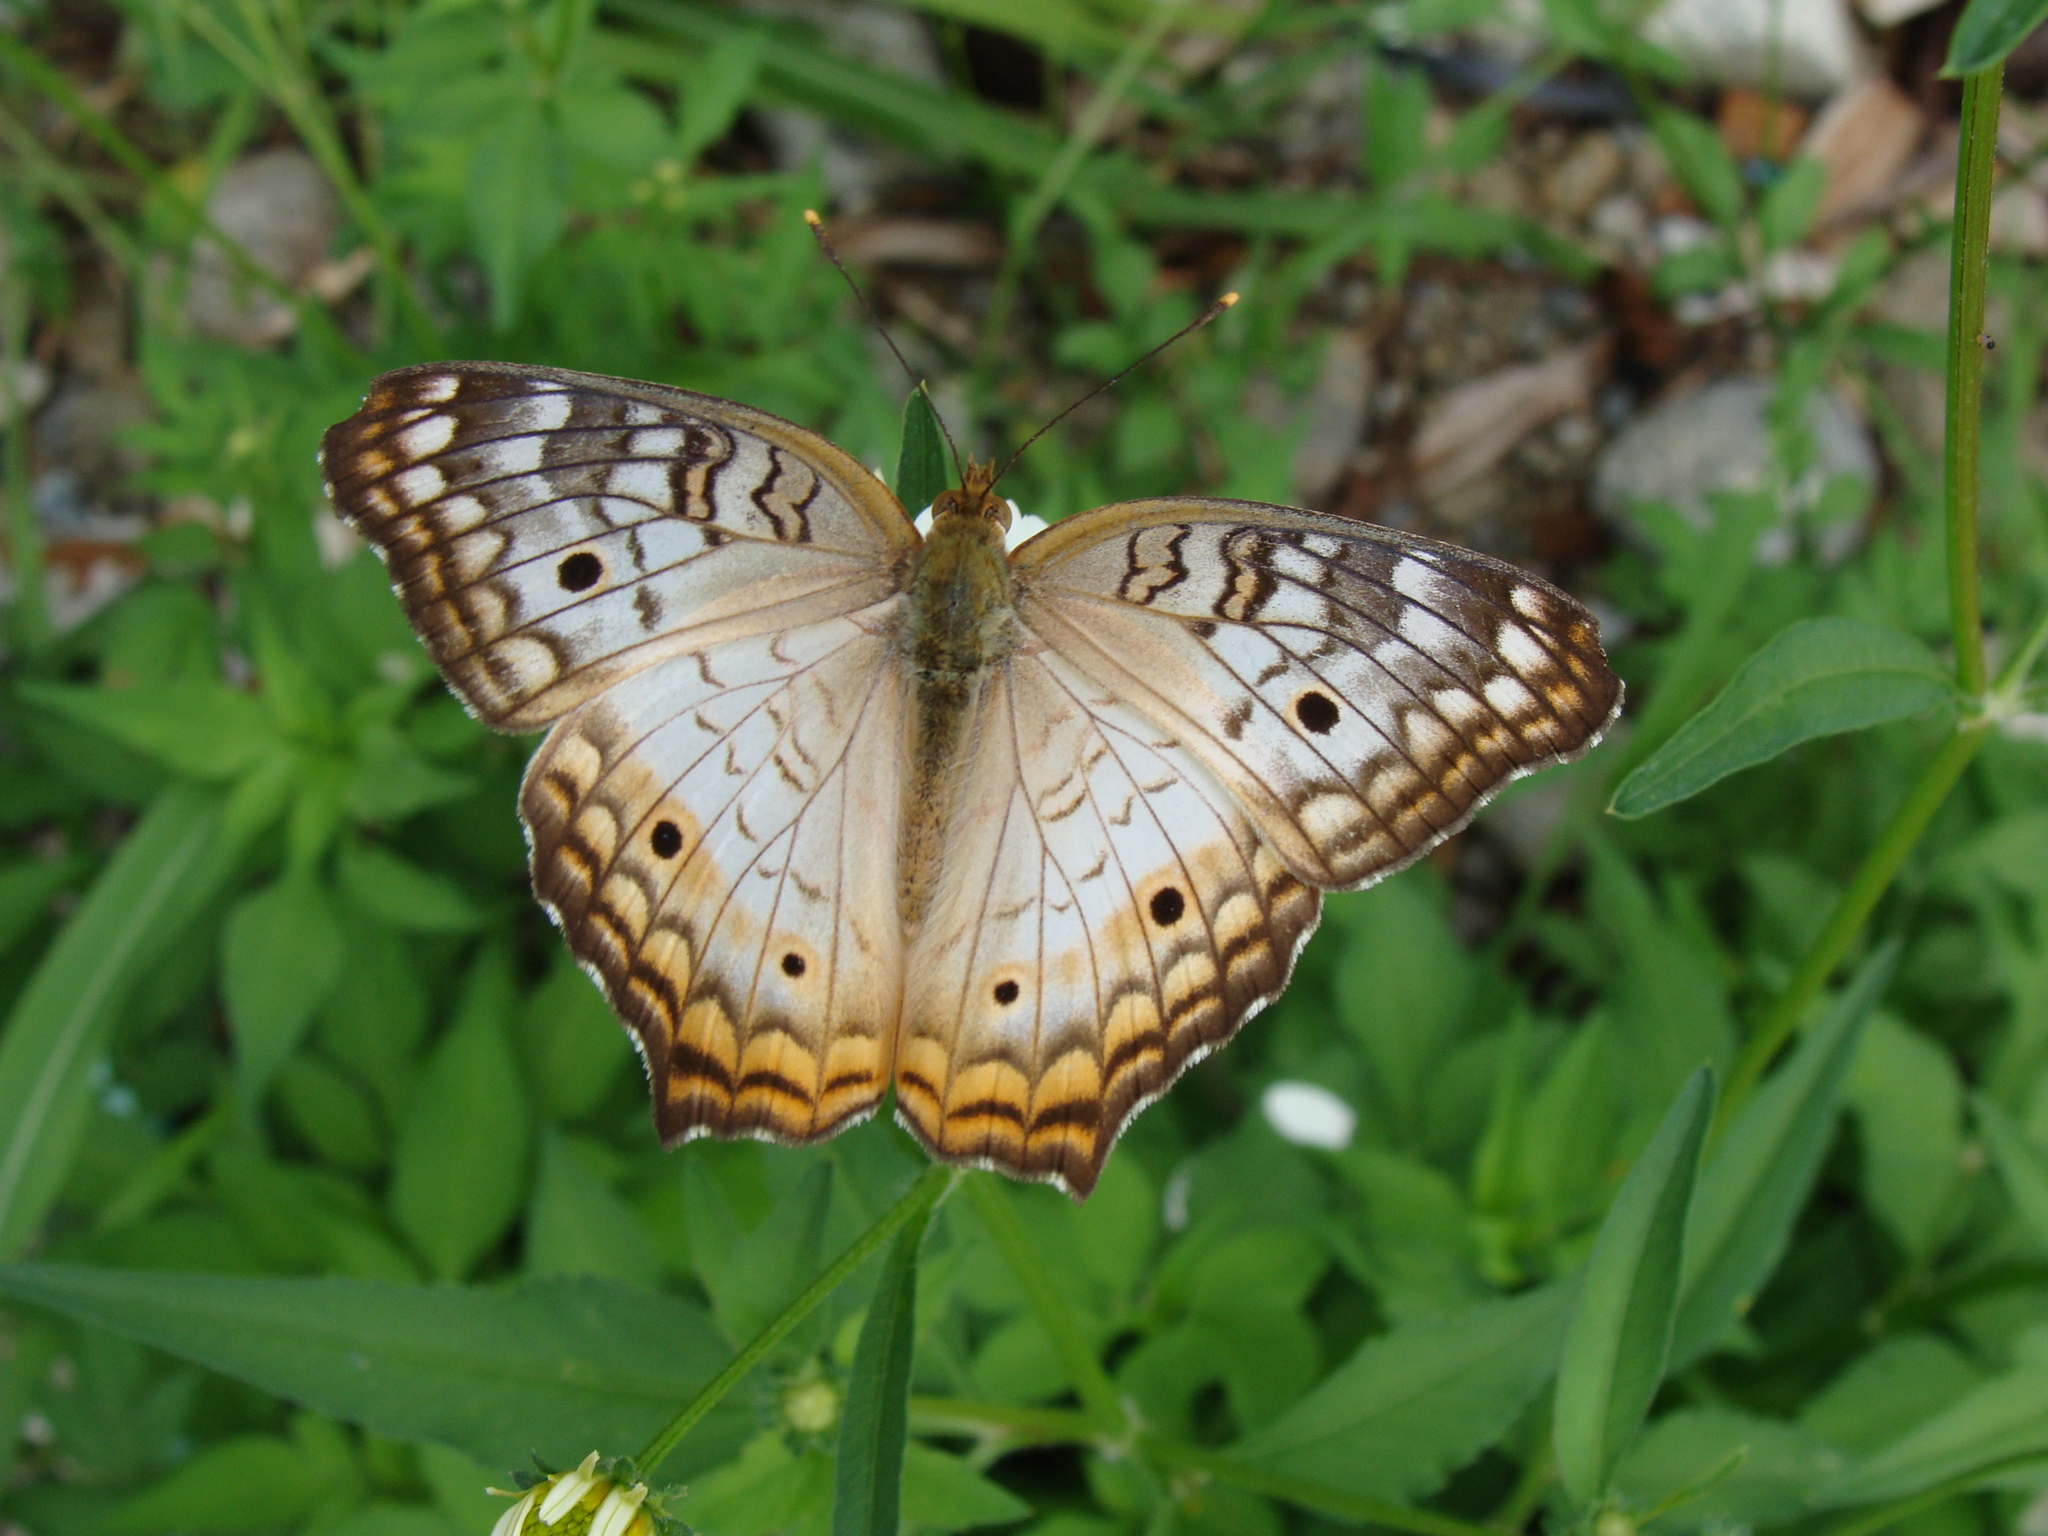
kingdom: Animalia
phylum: Arthropoda
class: Insecta
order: Lepidoptera
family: Nymphalidae
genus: Anartia
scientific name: Anartia jatrophae
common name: White peacock
